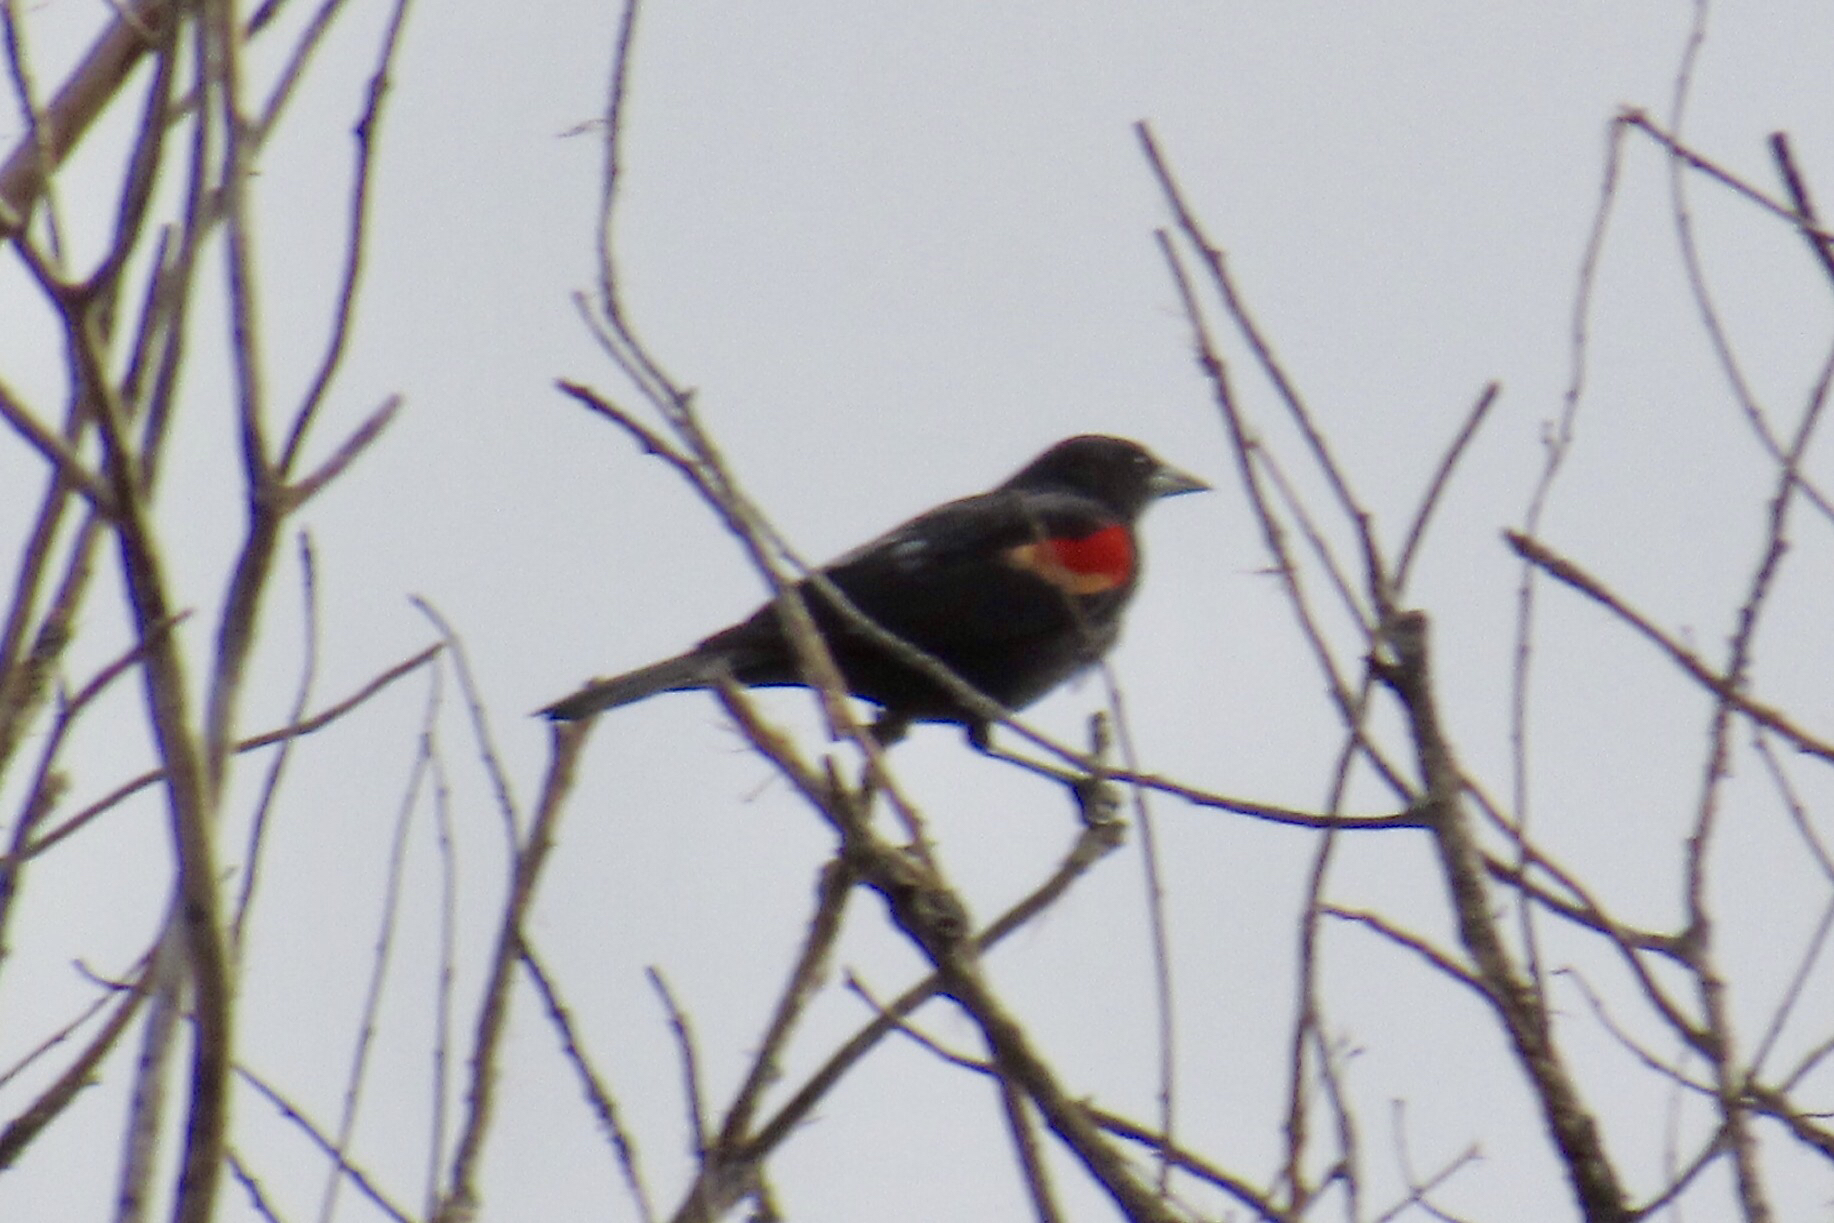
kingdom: Animalia
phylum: Chordata
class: Aves
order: Passeriformes
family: Icteridae
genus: Agelaius
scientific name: Agelaius phoeniceus
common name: Red-winged blackbird
